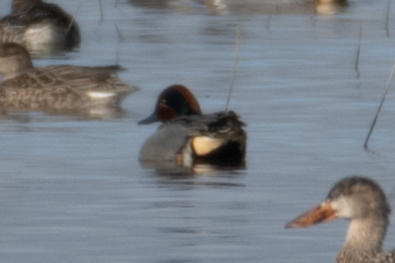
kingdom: Animalia
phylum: Chordata
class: Aves
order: Anseriformes
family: Anatidae
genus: Anas
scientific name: Anas crecca
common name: Eurasian teal
